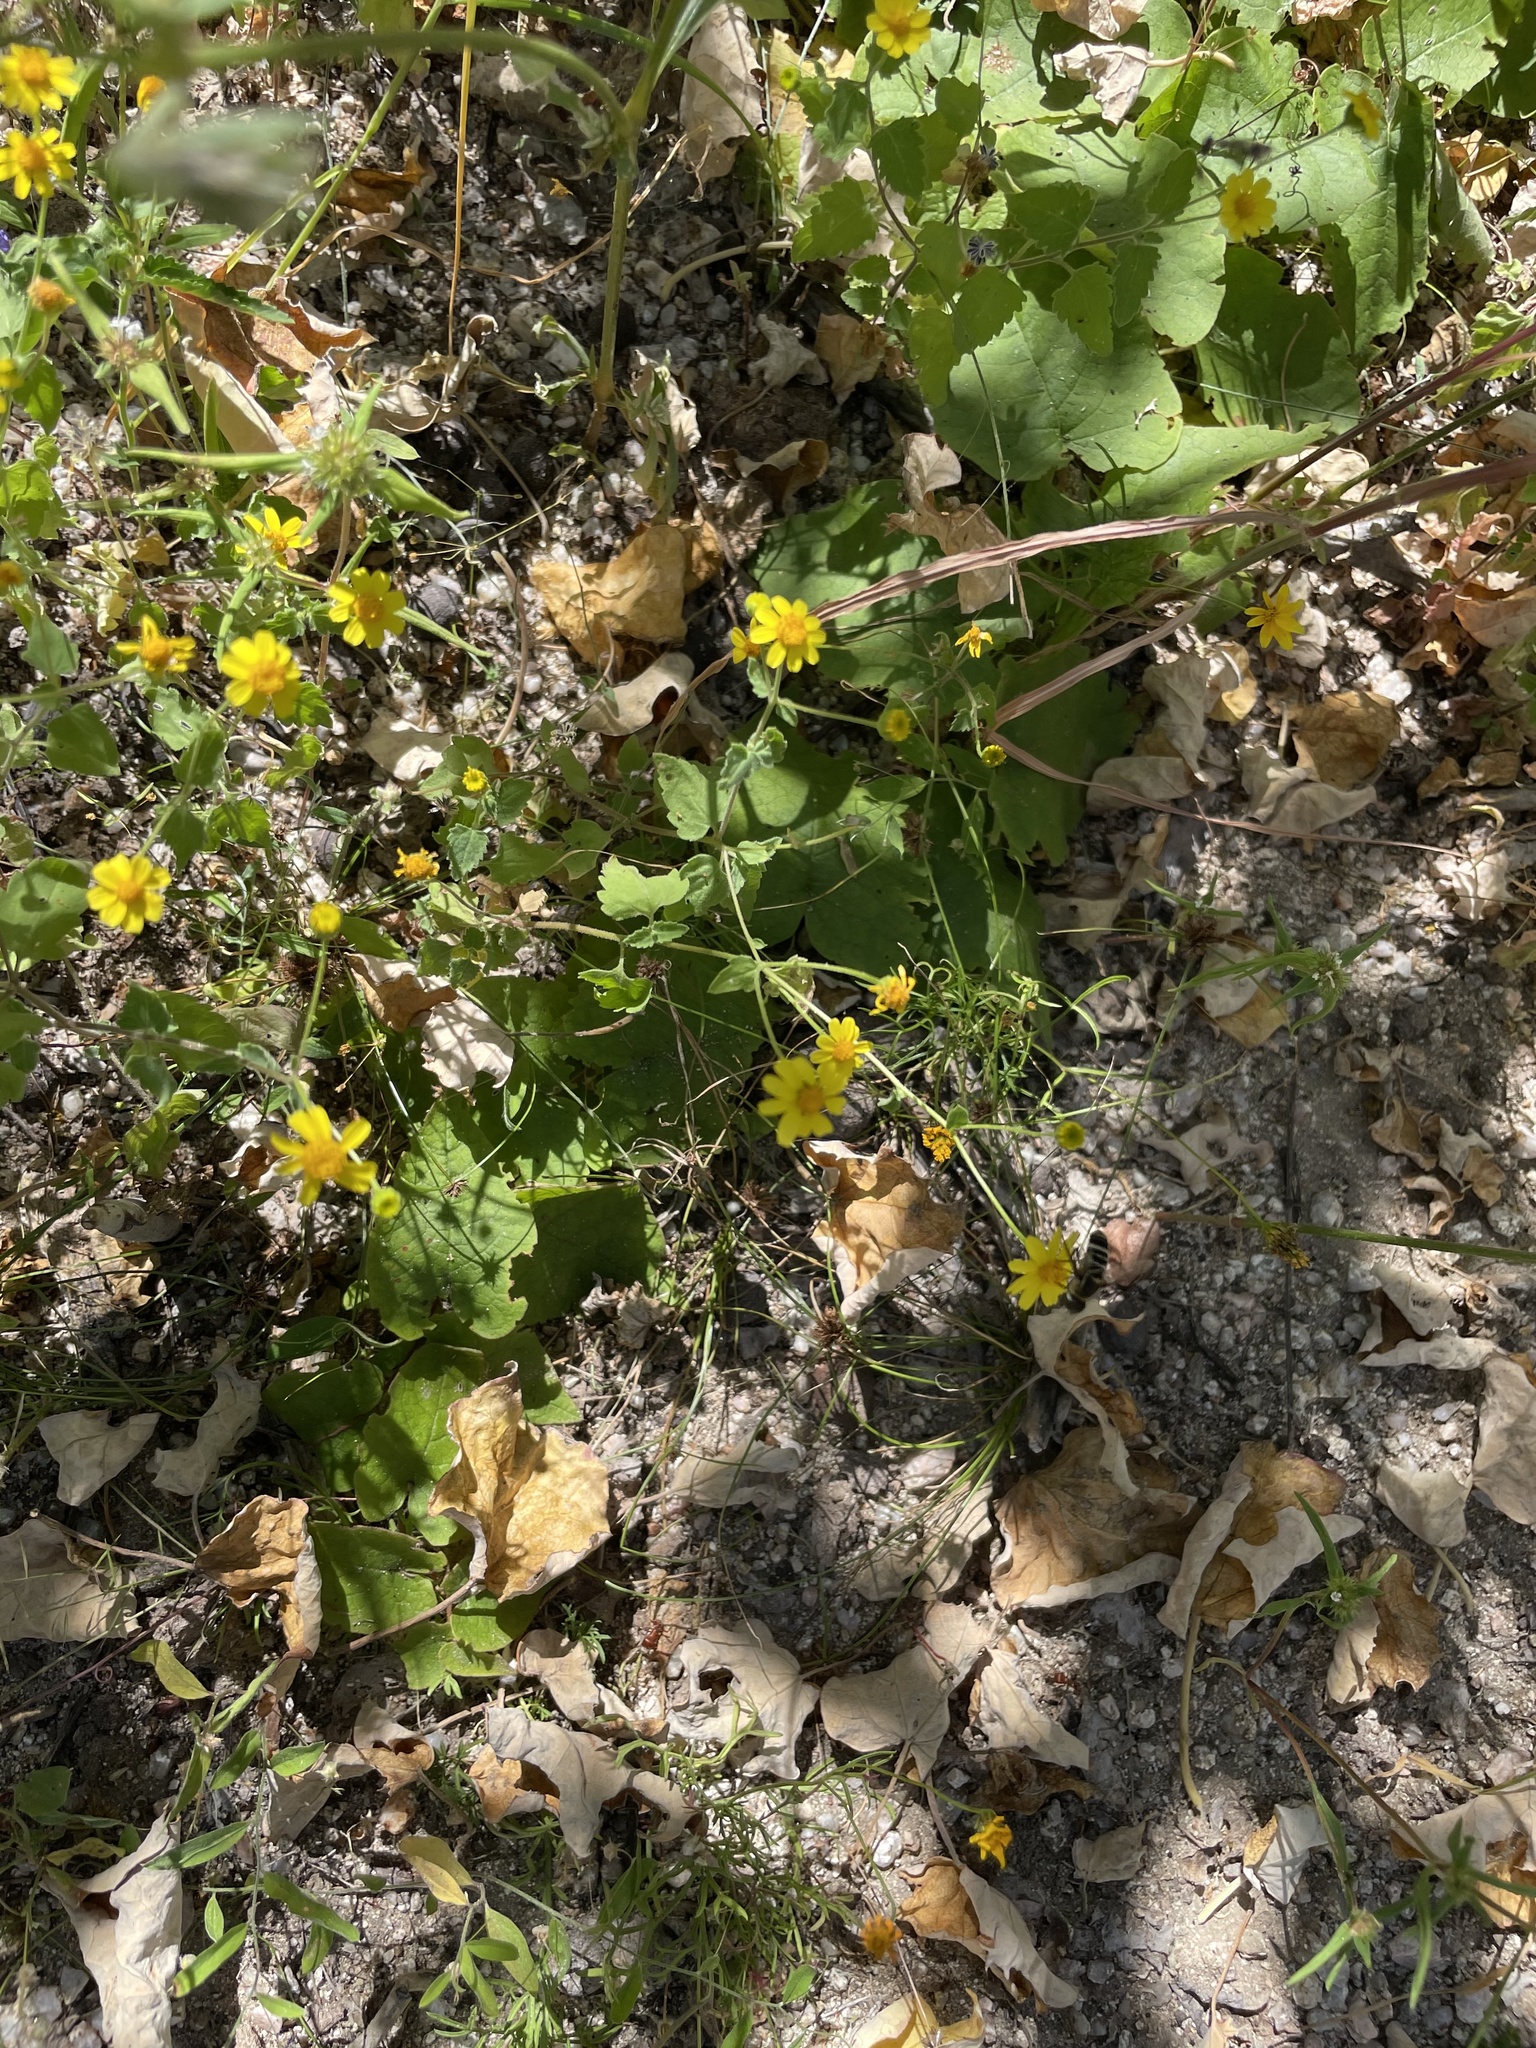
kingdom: Plantae
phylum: Tracheophyta
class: Magnoliopsida
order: Asterales
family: Asteraceae
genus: Perityle
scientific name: Perityle cuneata
